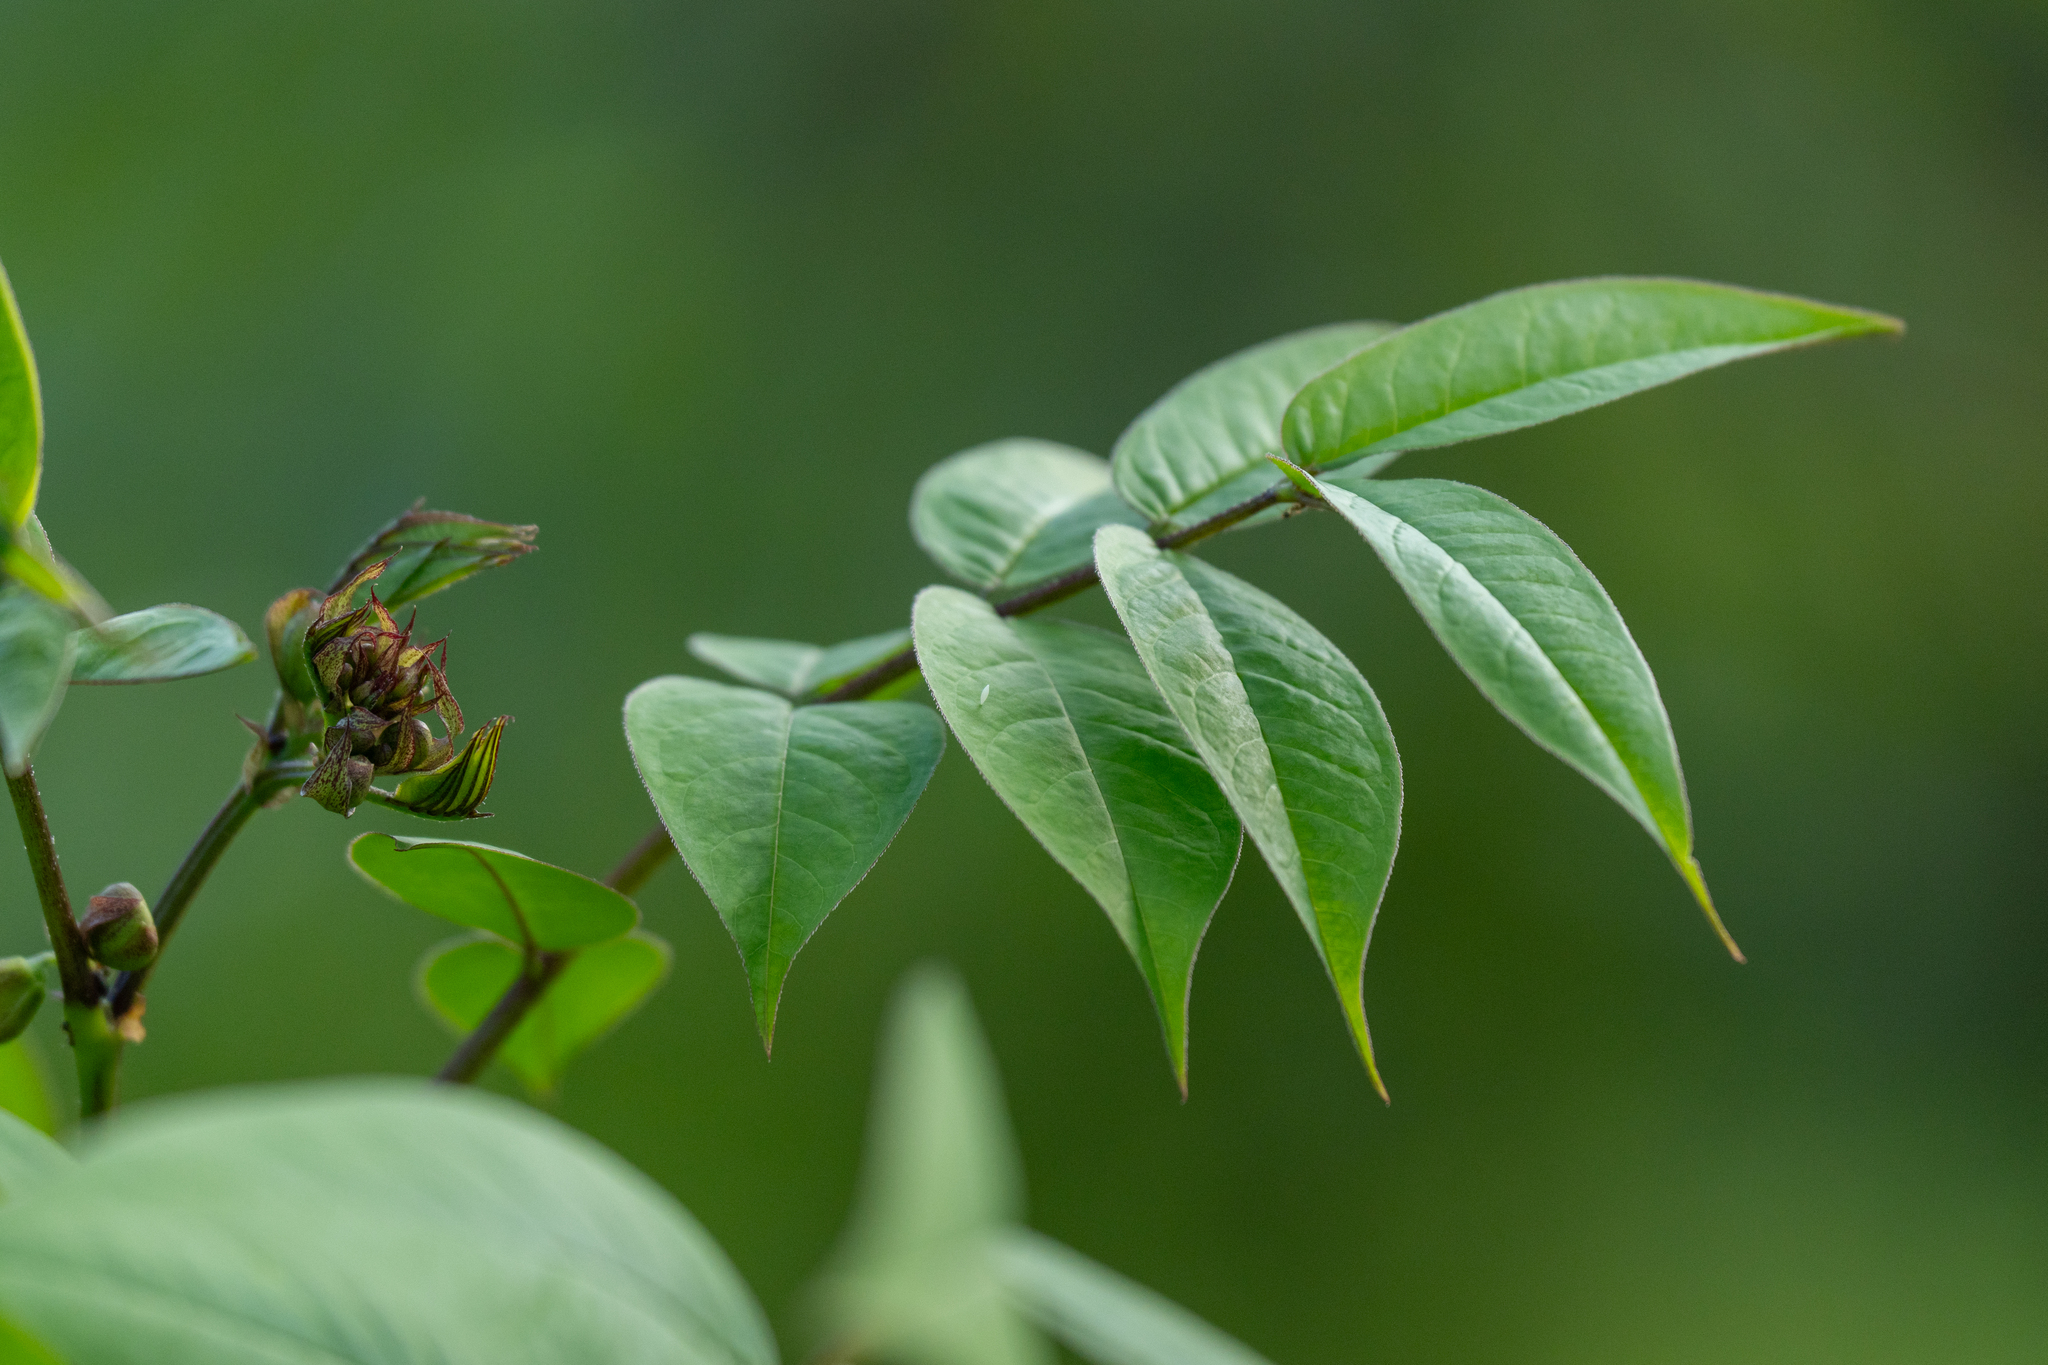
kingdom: Plantae
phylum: Tracheophyta
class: Magnoliopsida
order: Fabales
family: Fabaceae
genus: Senna
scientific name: Senna occidentalis
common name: Septicweed
